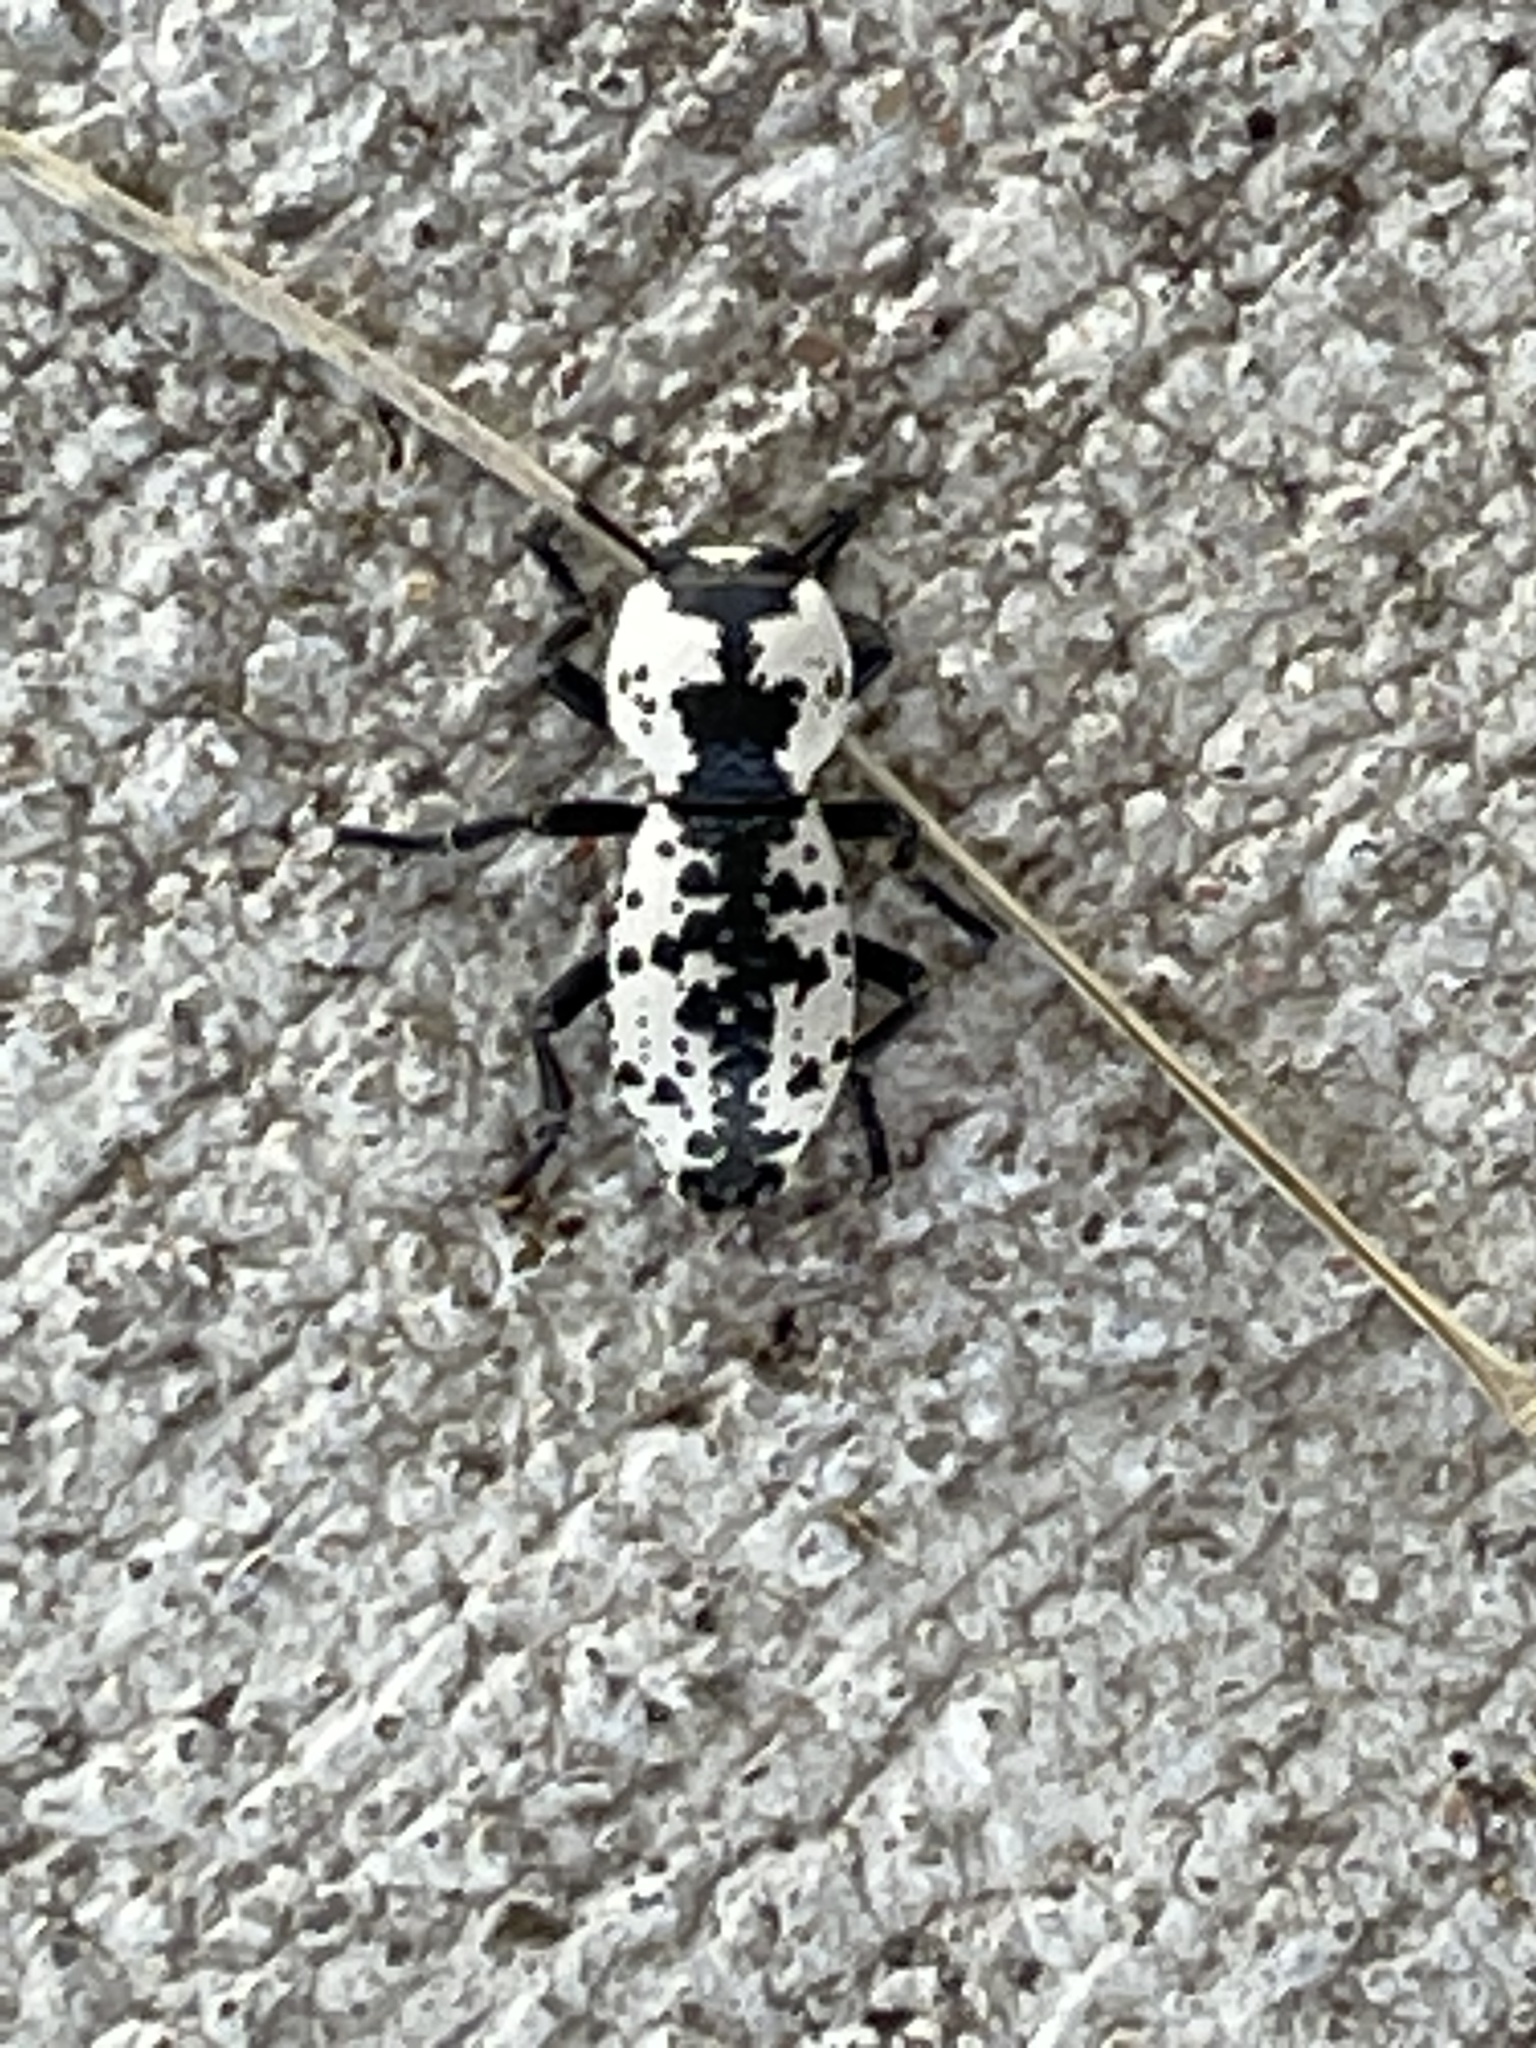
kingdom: Animalia
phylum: Arthropoda
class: Insecta
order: Coleoptera
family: Zopheridae
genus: Zopherus
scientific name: Zopherus nodulosus
